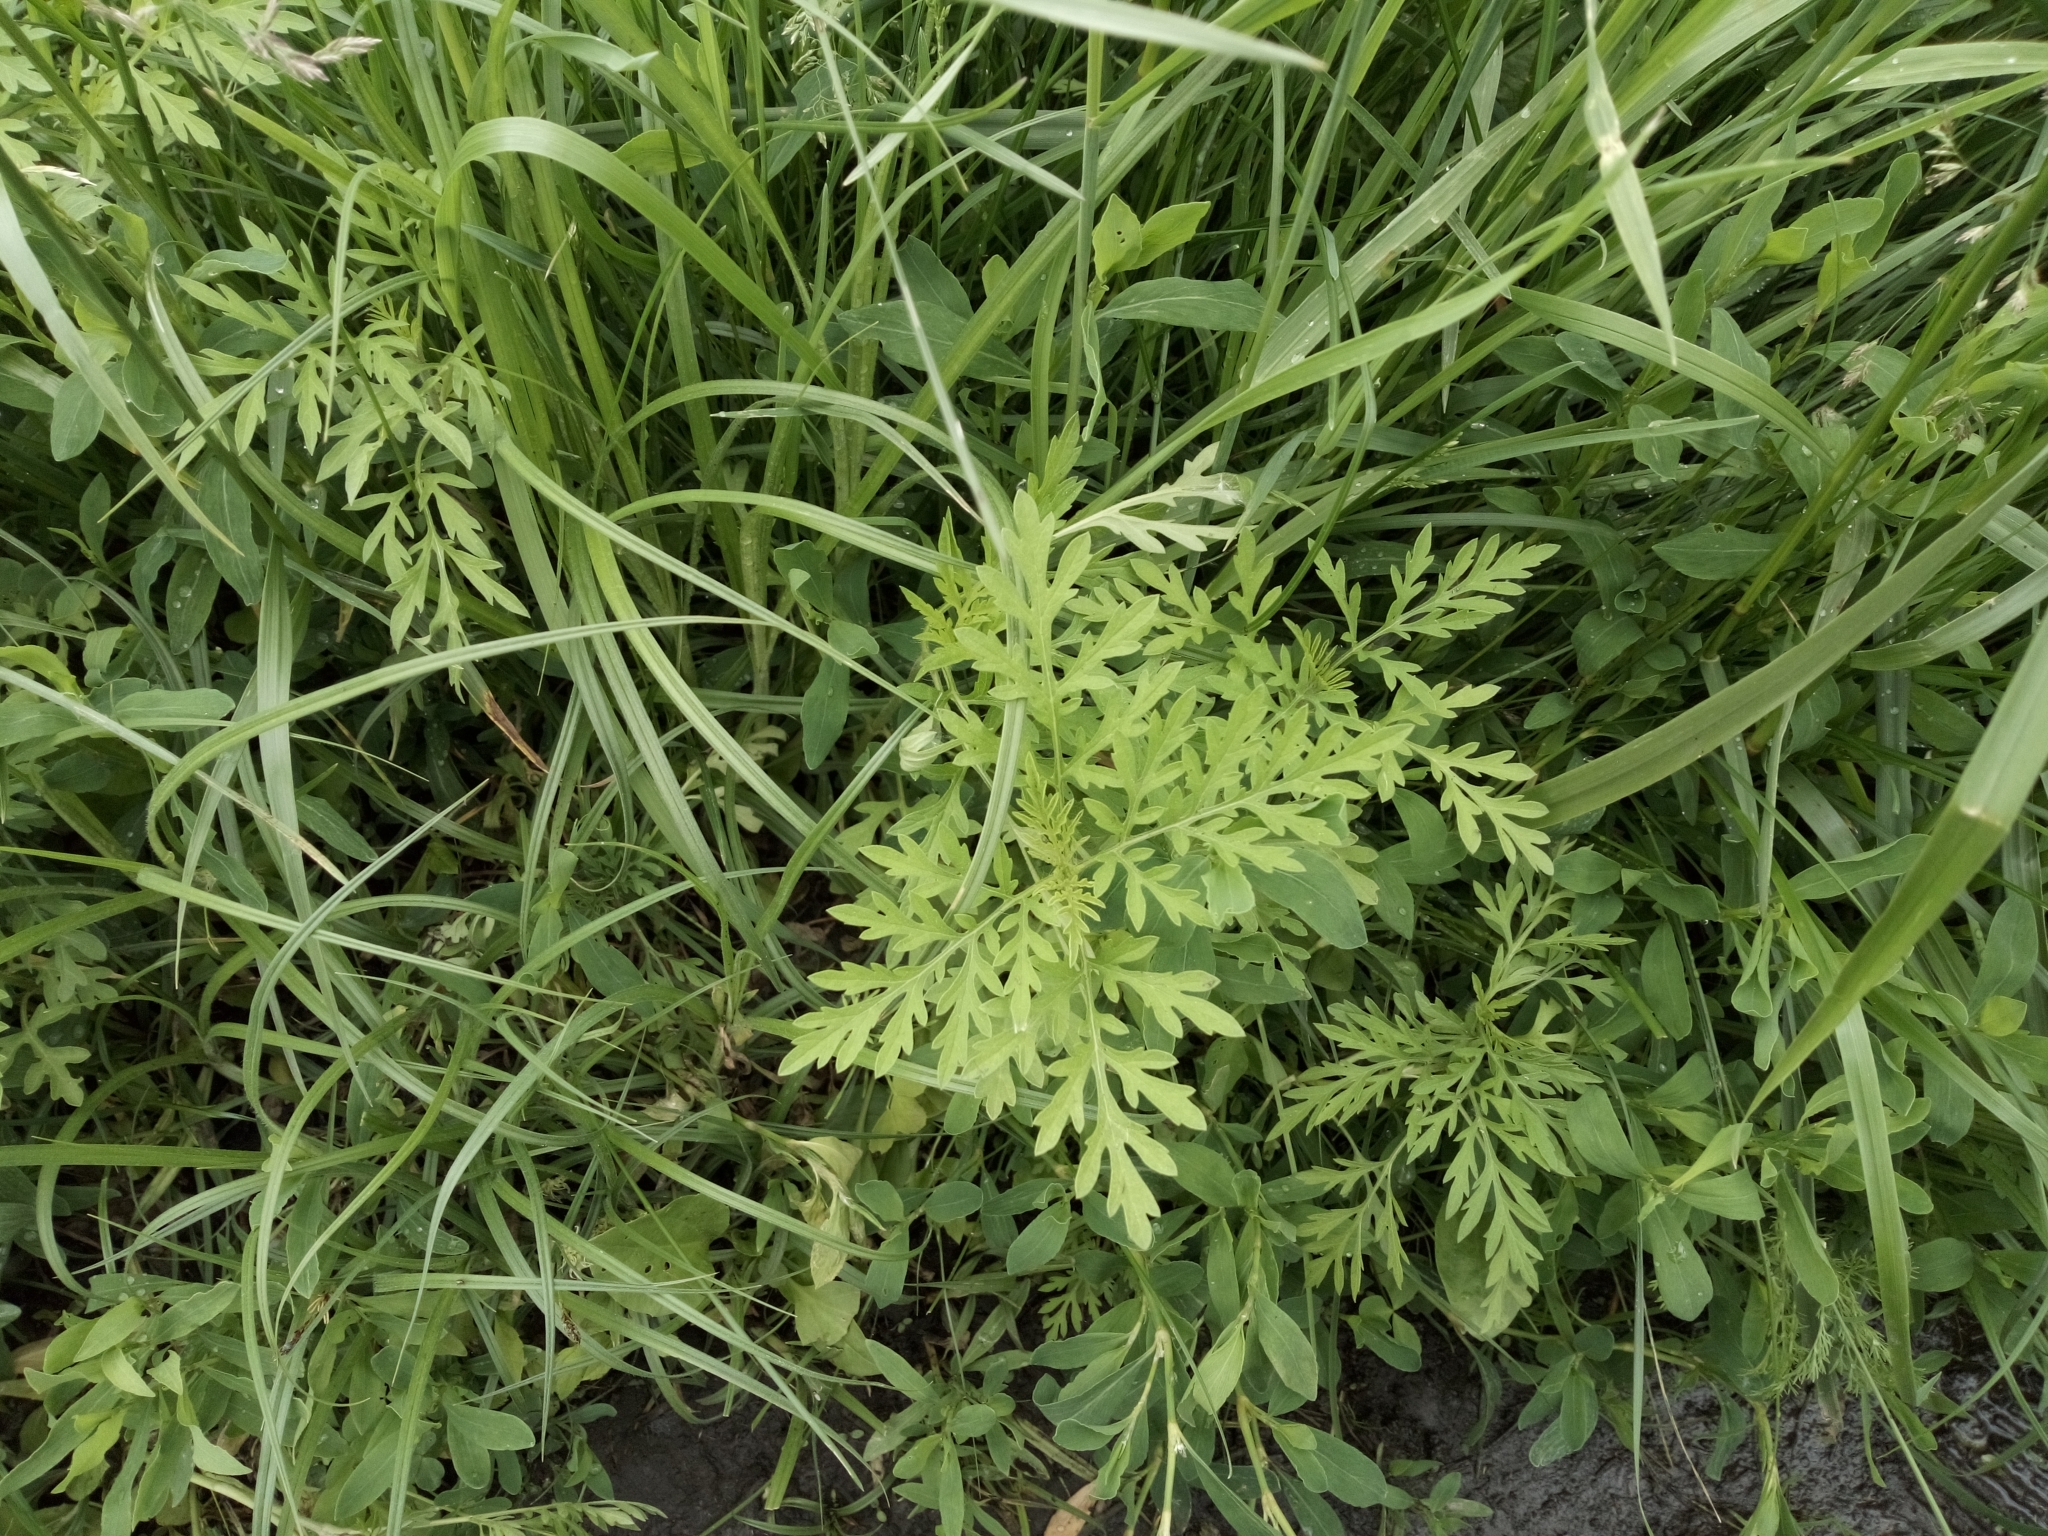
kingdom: Plantae
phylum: Tracheophyta
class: Magnoliopsida
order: Asterales
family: Asteraceae
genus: Ambrosia
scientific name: Ambrosia artemisiifolia
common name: Annual ragweed
